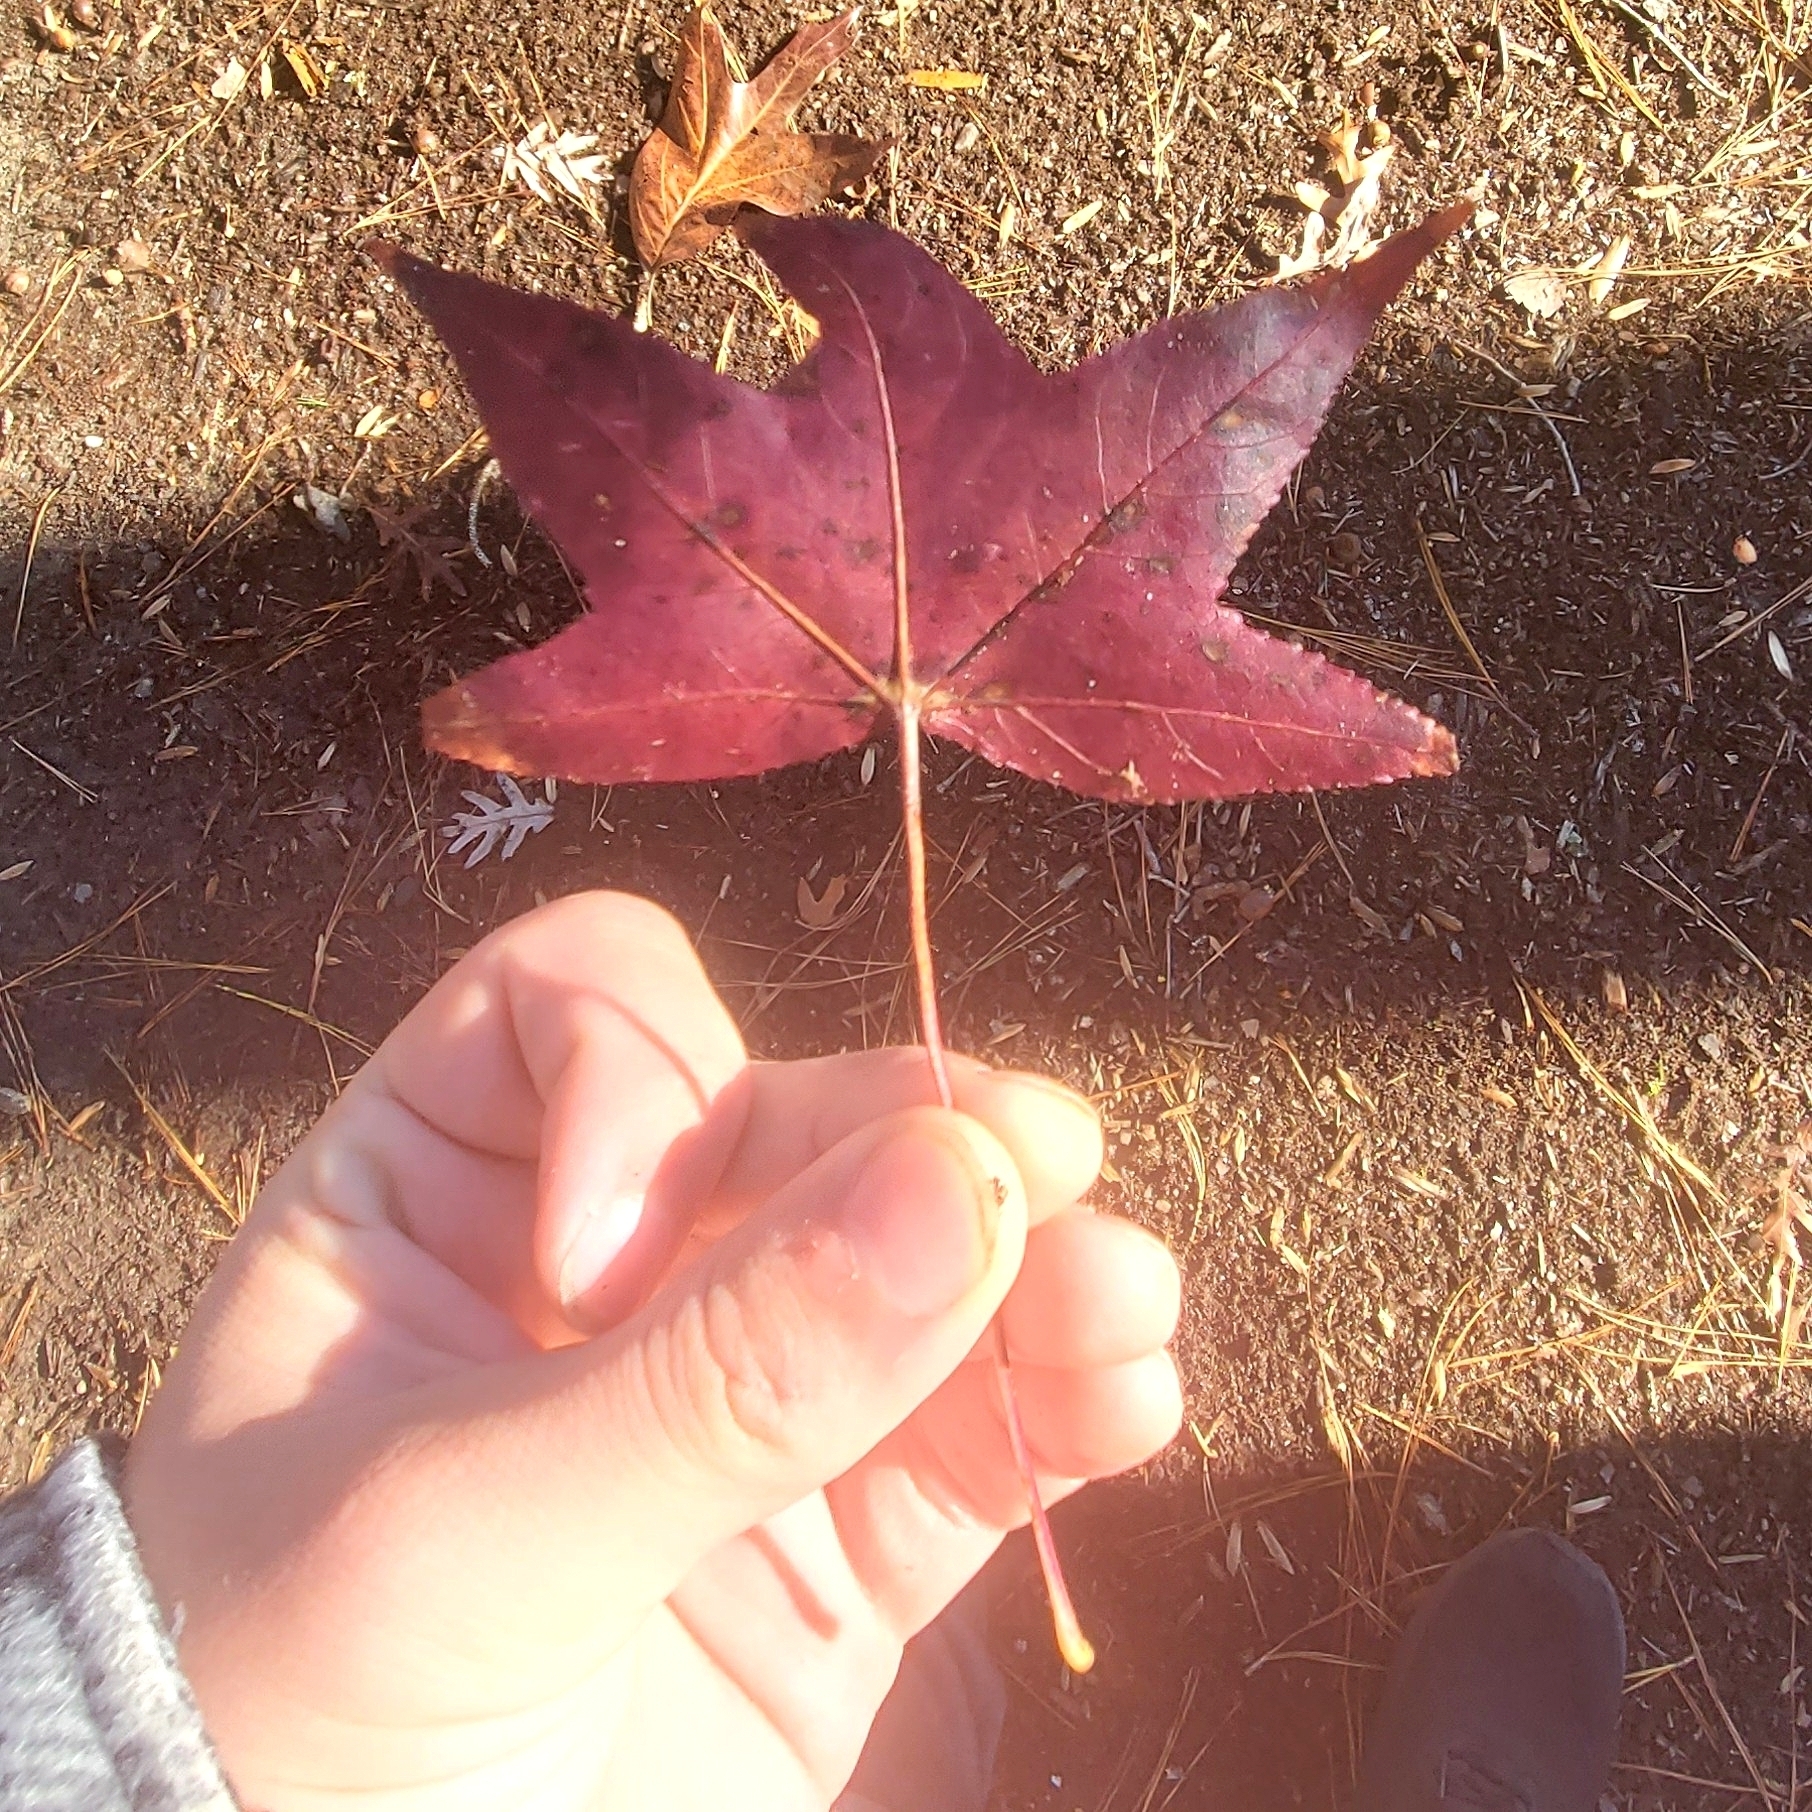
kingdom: Plantae
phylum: Tracheophyta
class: Magnoliopsida
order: Saxifragales
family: Altingiaceae
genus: Liquidambar
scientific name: Liquidambar styraciflua
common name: Sweet gum
